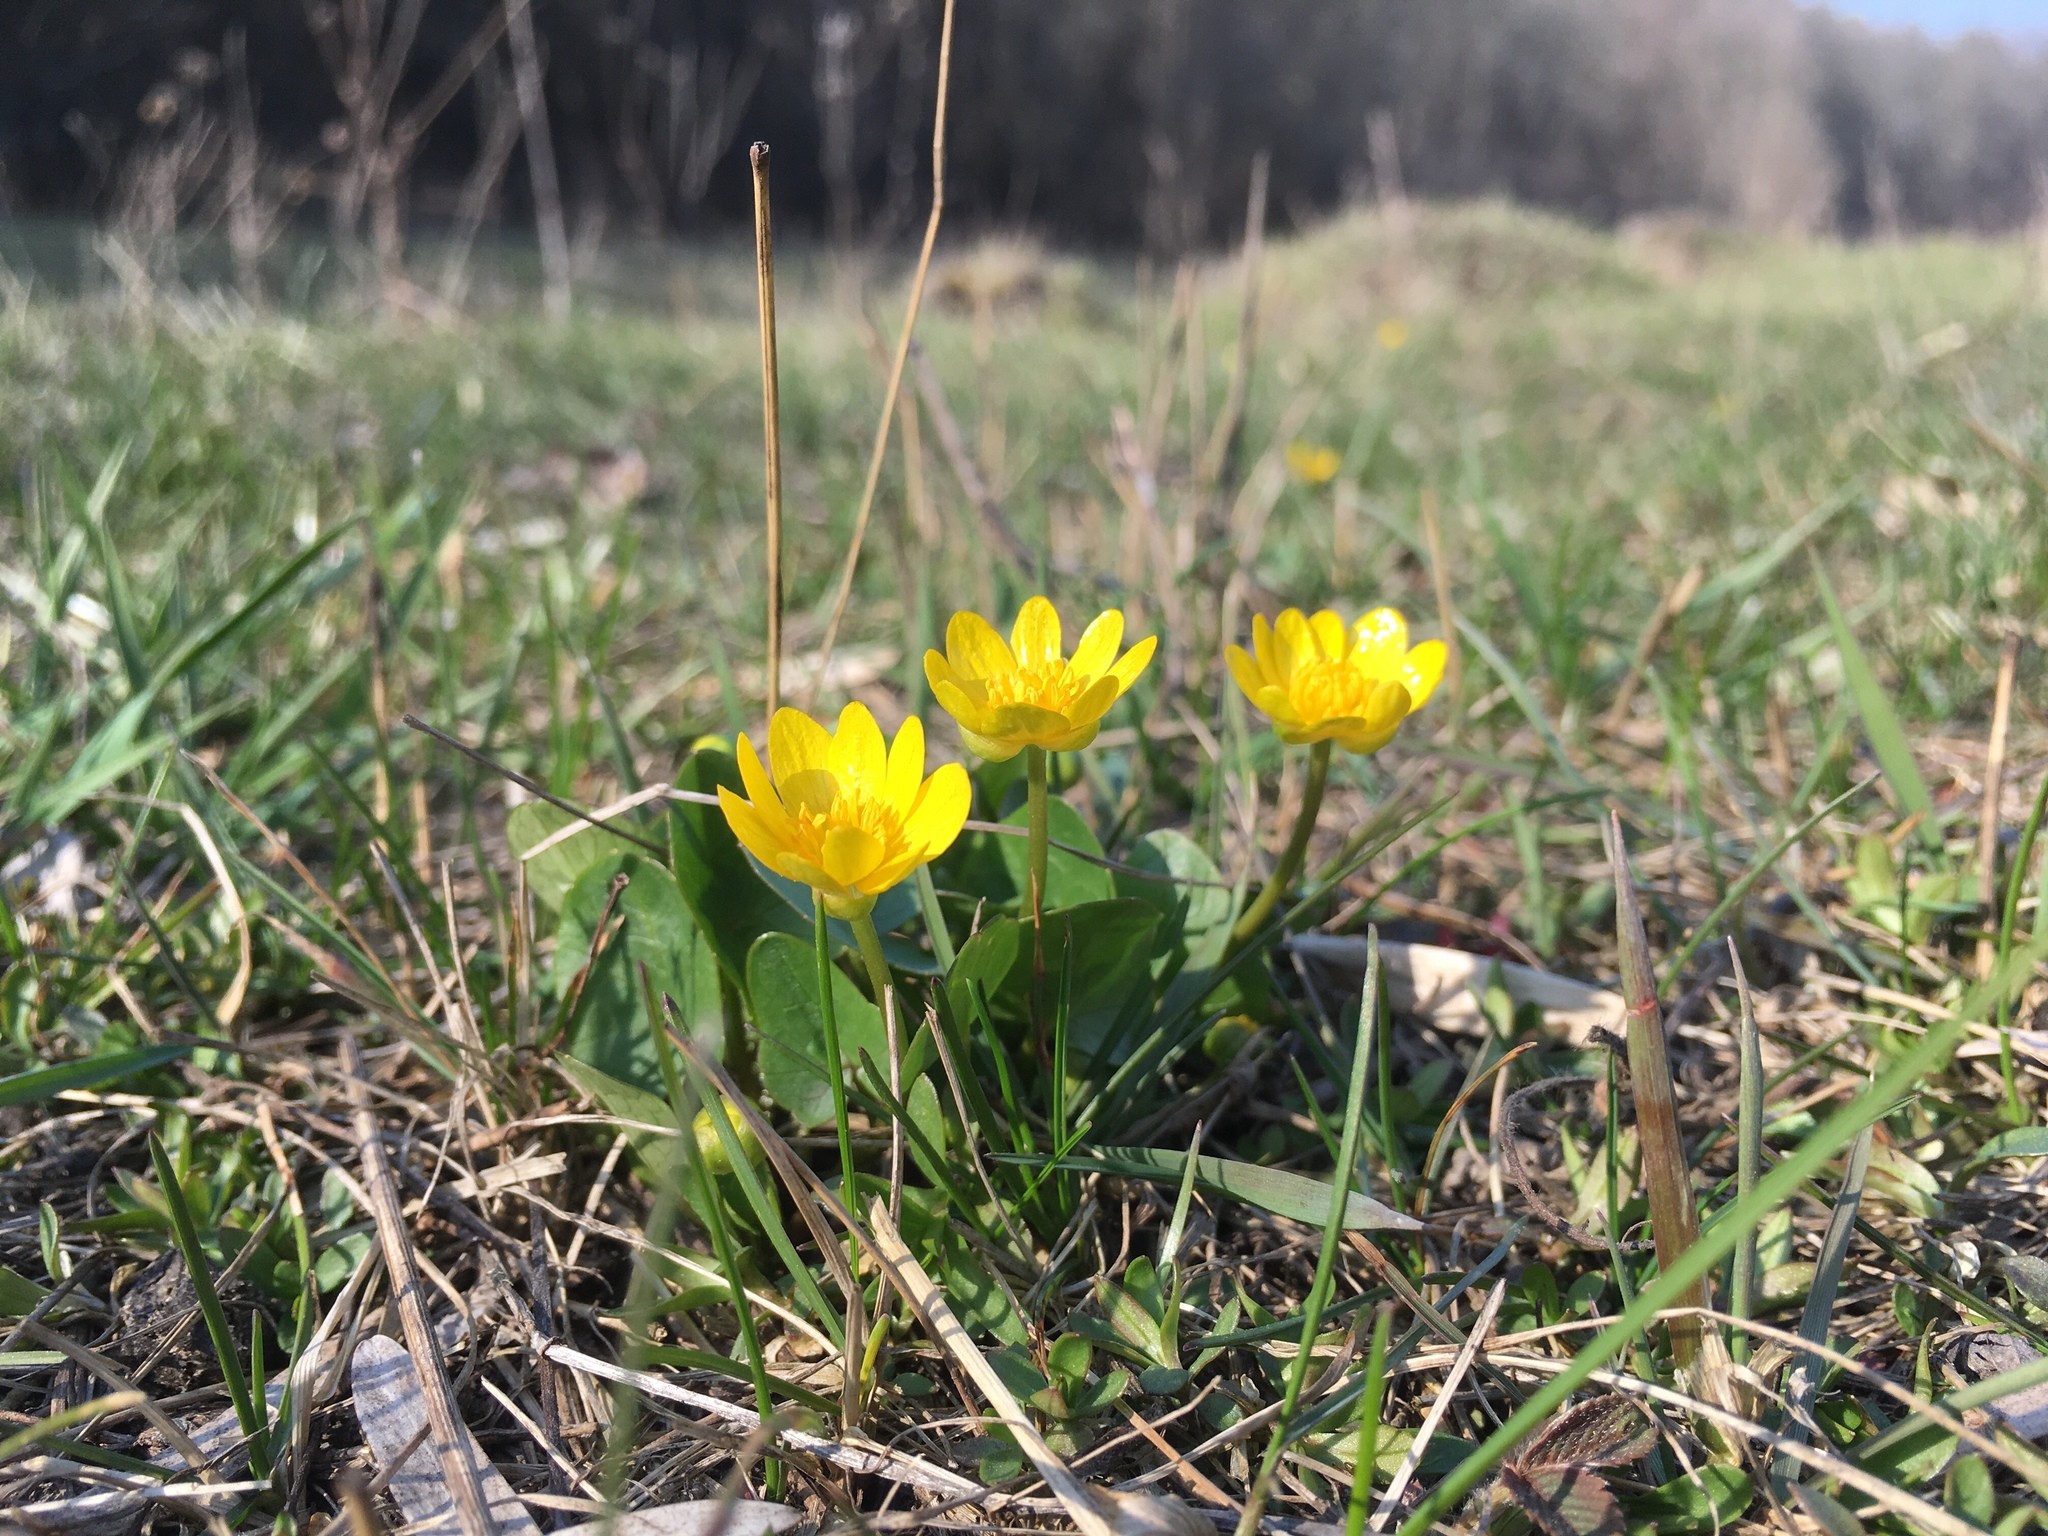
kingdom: Plantae
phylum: Tracheophyta
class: Magnoliopsida
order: Ranunculales
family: Ranunculaceae
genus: Ficaria
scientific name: Ficaria verna
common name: Lesser celandine
